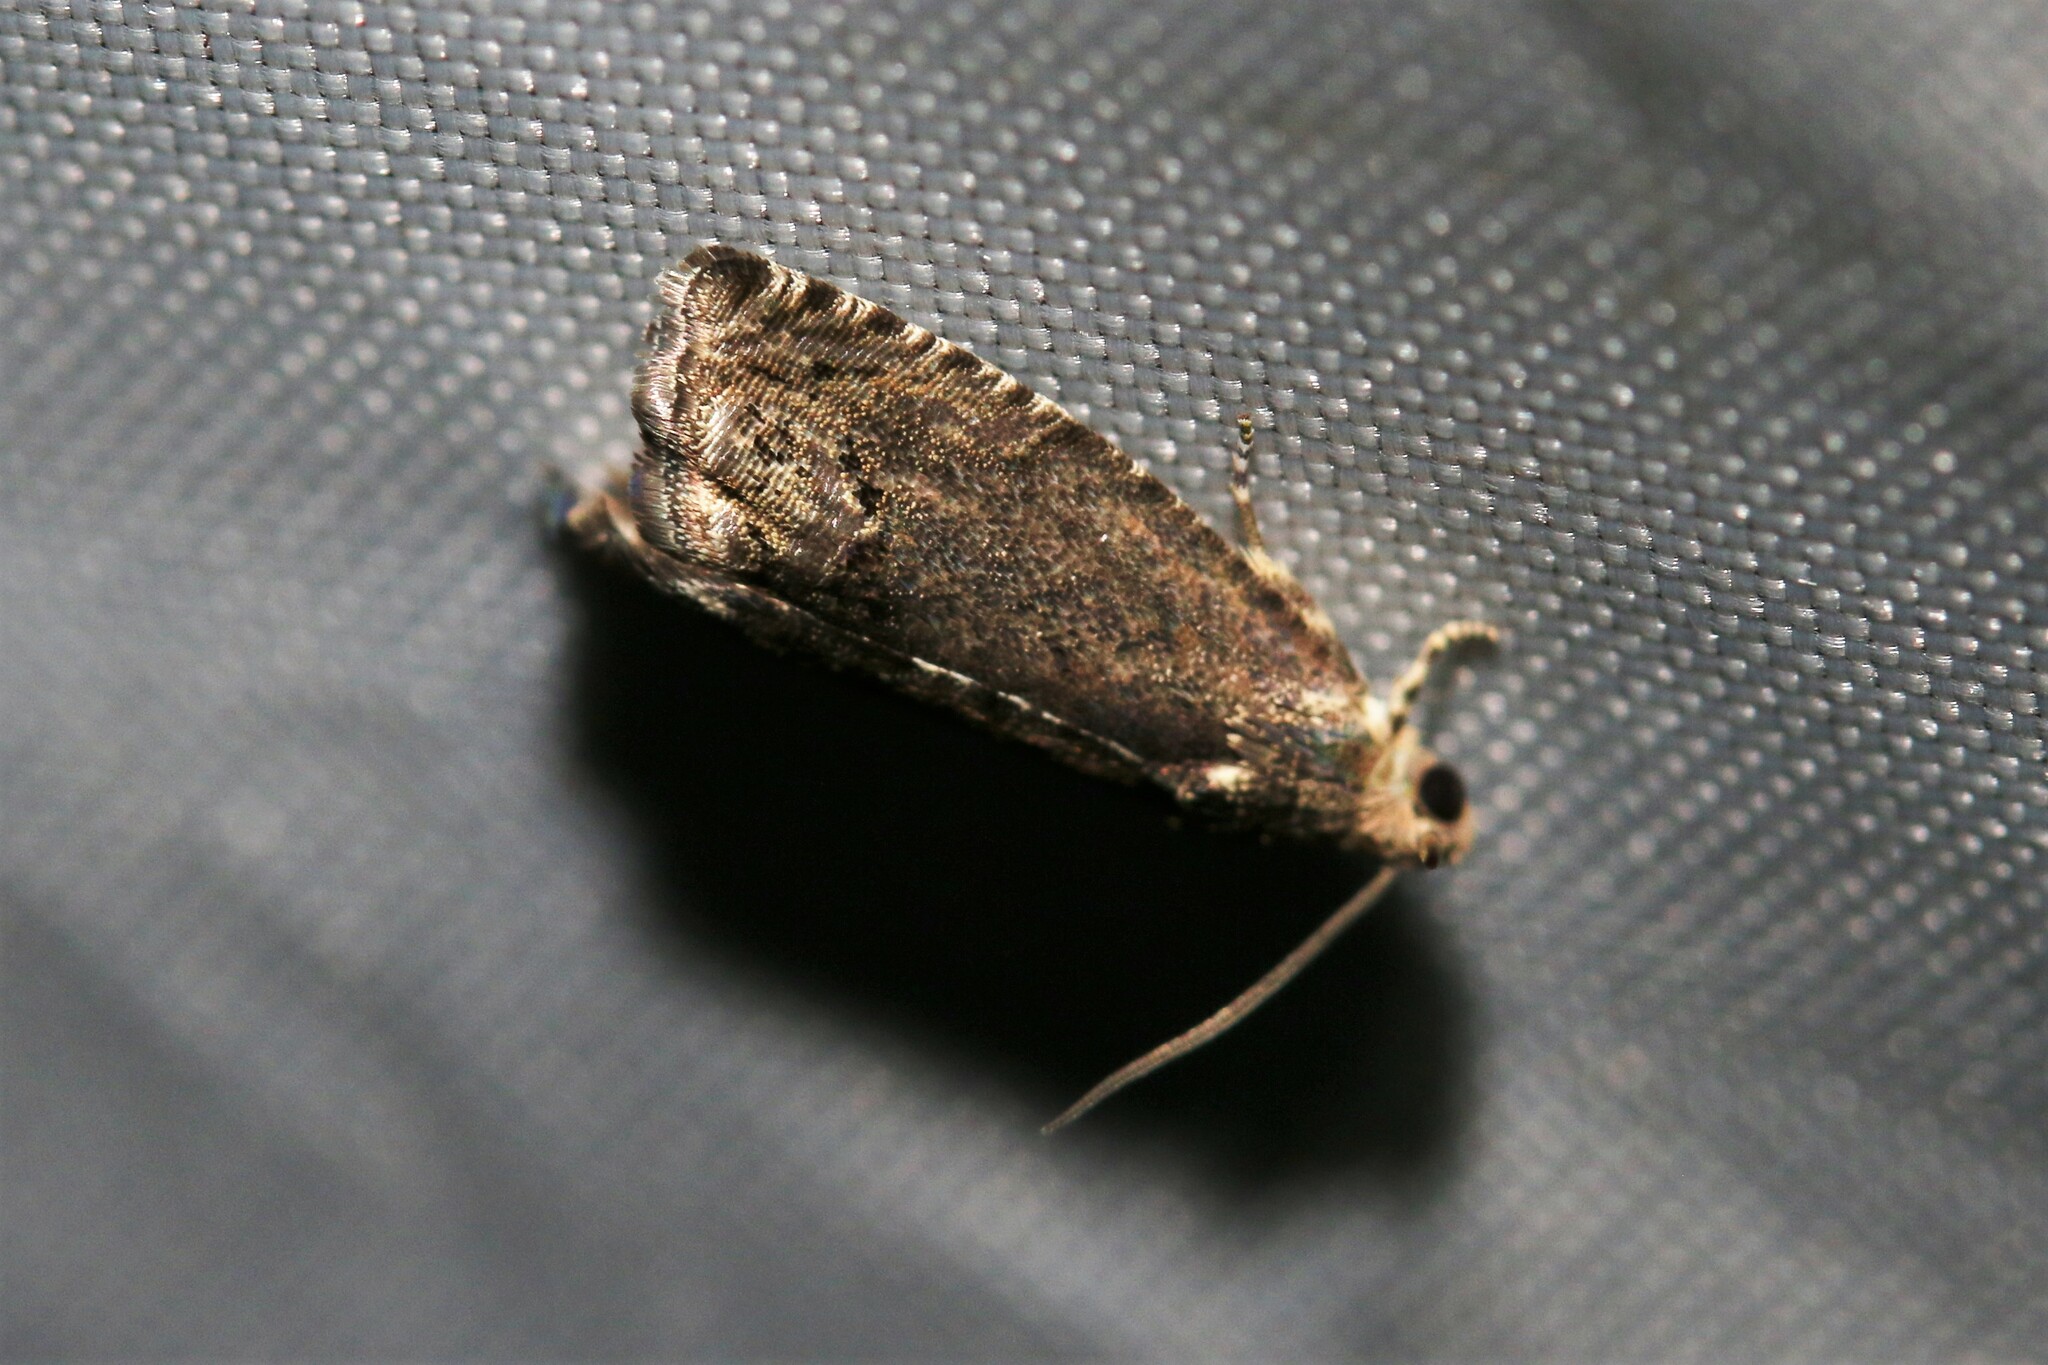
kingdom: Animalia
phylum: Arthropoda
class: Insecta
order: Lepidoptera
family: Tortricidae
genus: Cydia
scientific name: Cydia splendana
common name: De: kastanienwickler, eichenwickler es: oruga de la castaña fr: carpocapse des châtaignes it: cidia o tortrice tardiva delle castagne pt: bichado das castanhas gb: acorn moth, chestnut fruit tortrix
